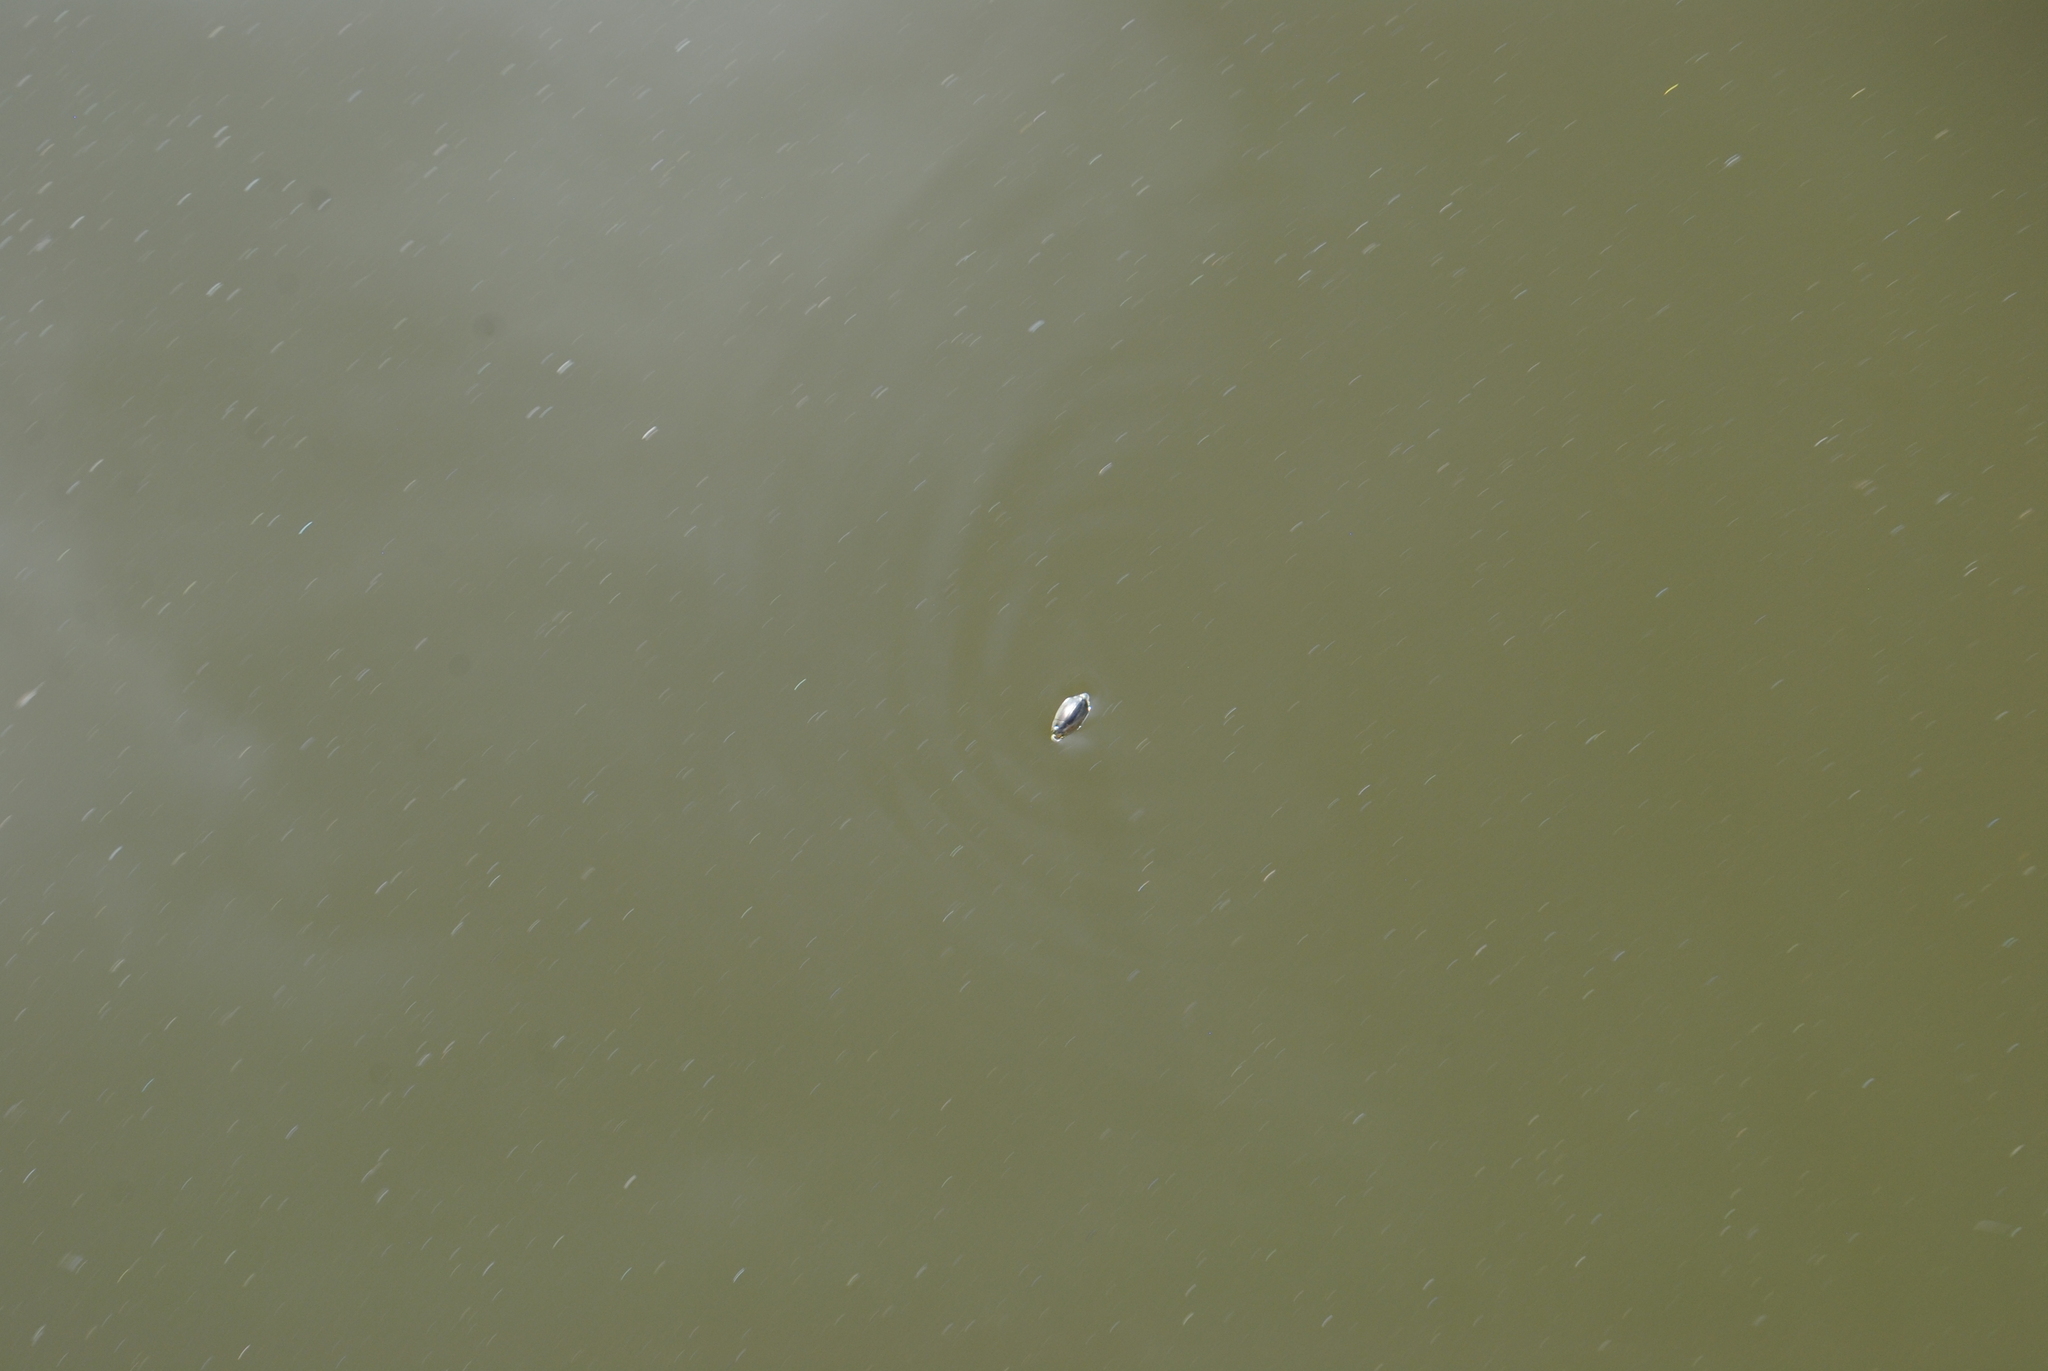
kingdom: Animalia
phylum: Arthropoda
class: Insecta
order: Coleoptera
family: Gyrinidae
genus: Dineutus
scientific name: Dineutus
